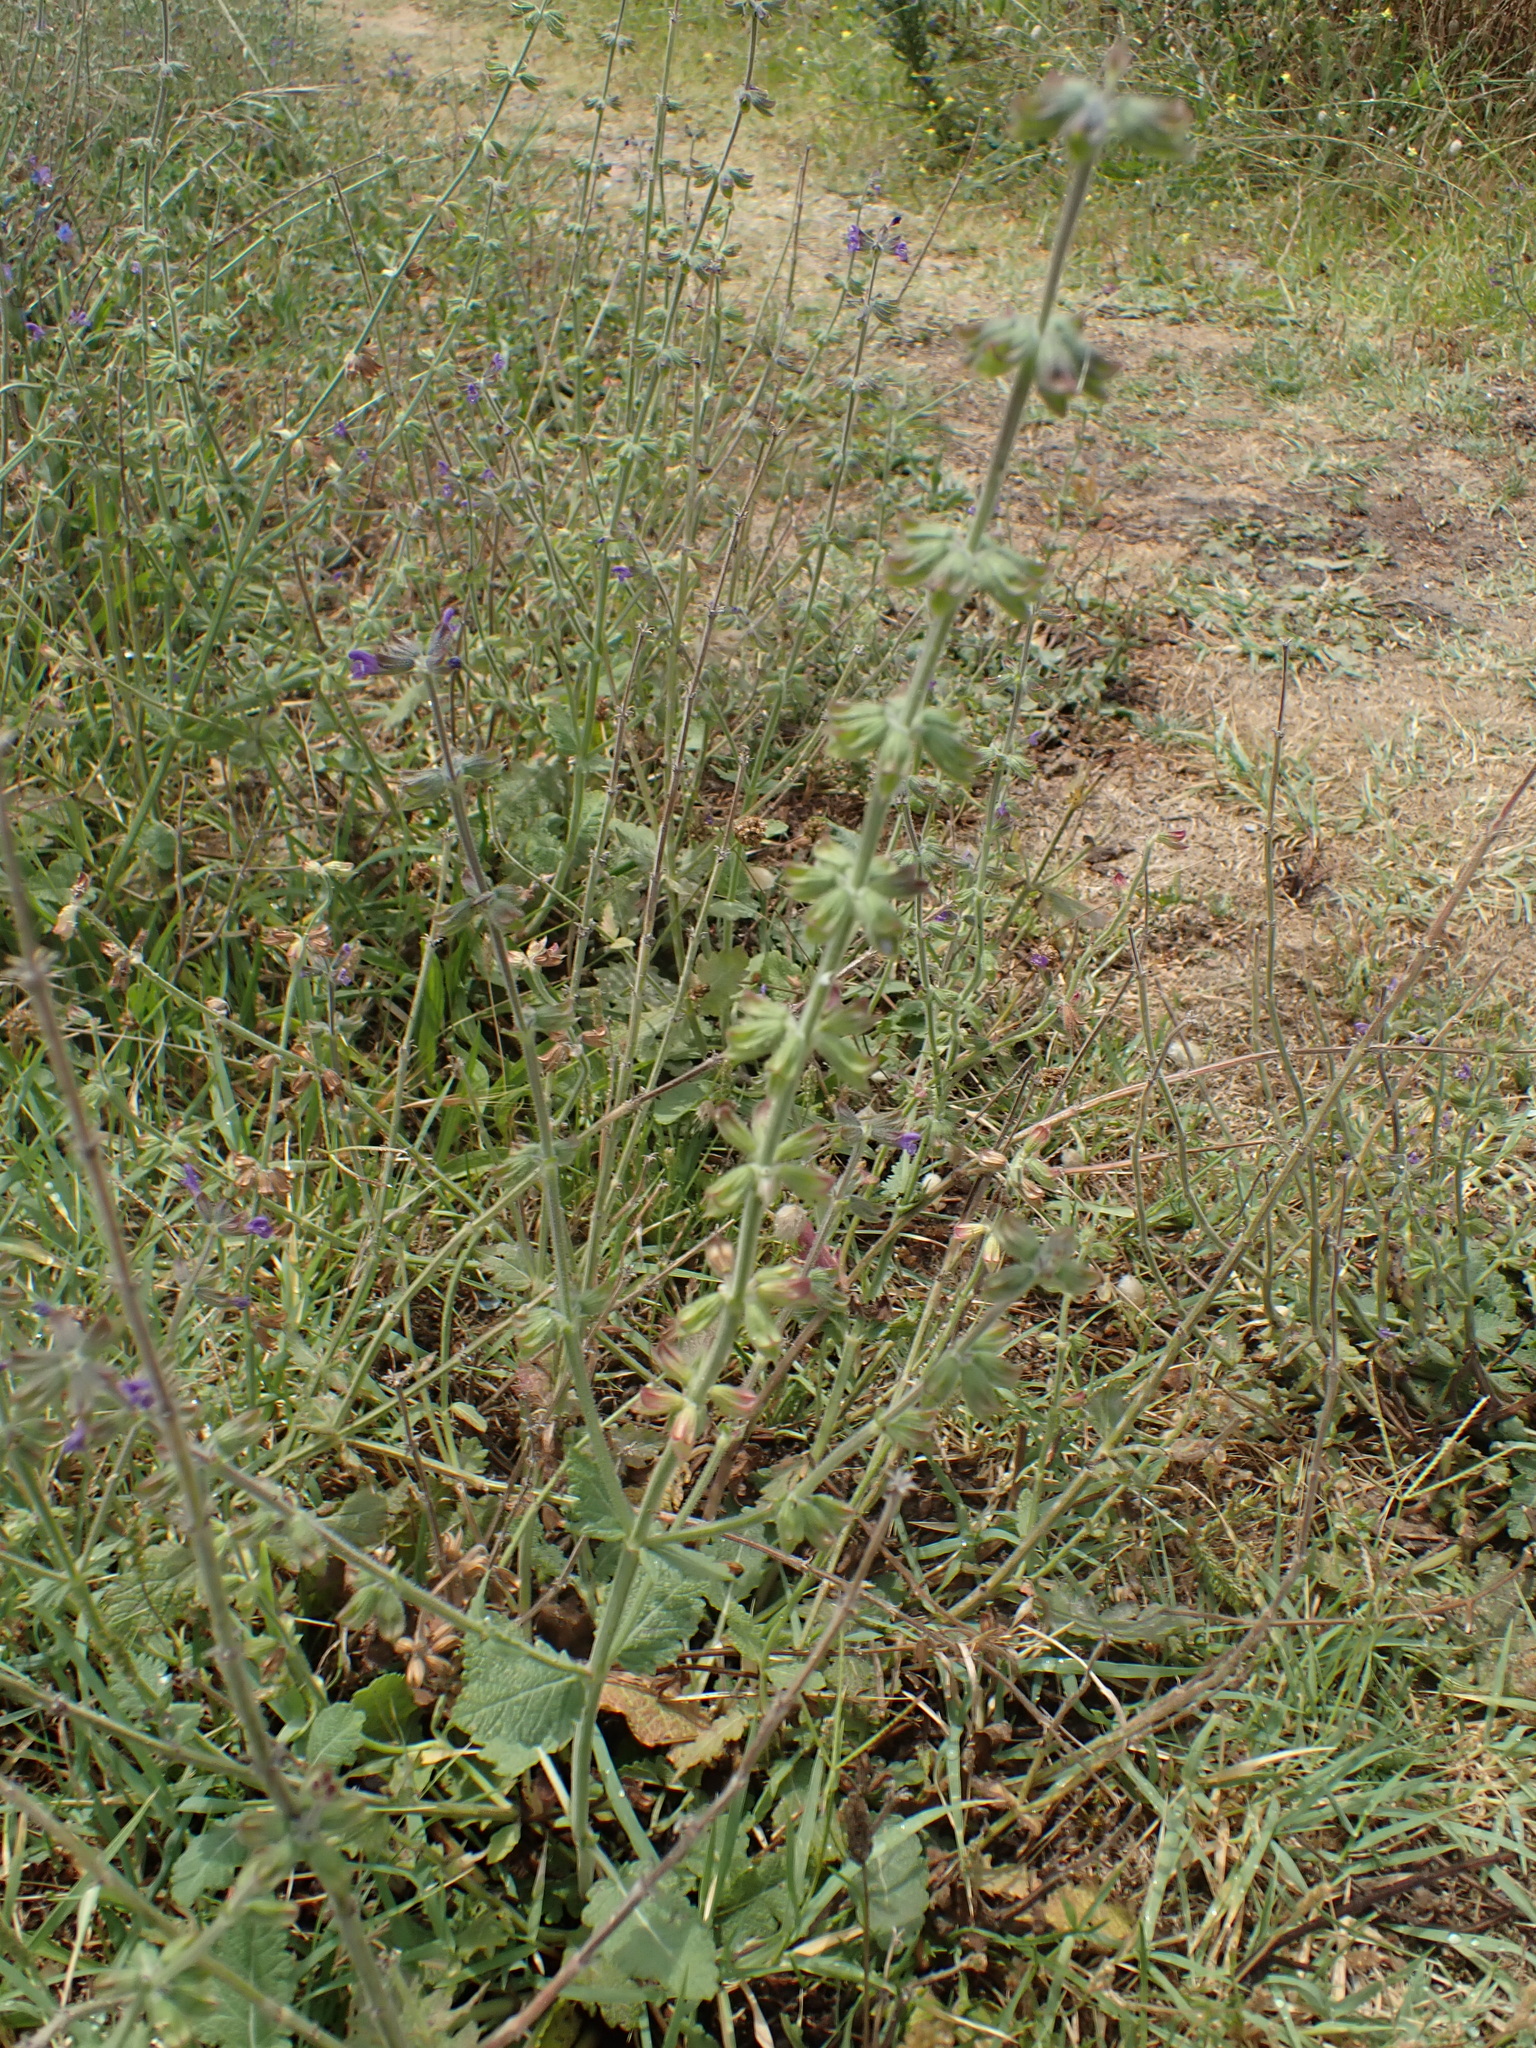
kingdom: Plantae
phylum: Tracheophyta
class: Magnoliopsida
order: Lamiales
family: Lamiaceae
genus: Salvia
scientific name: Salvia verbenaca
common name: Wild clary
